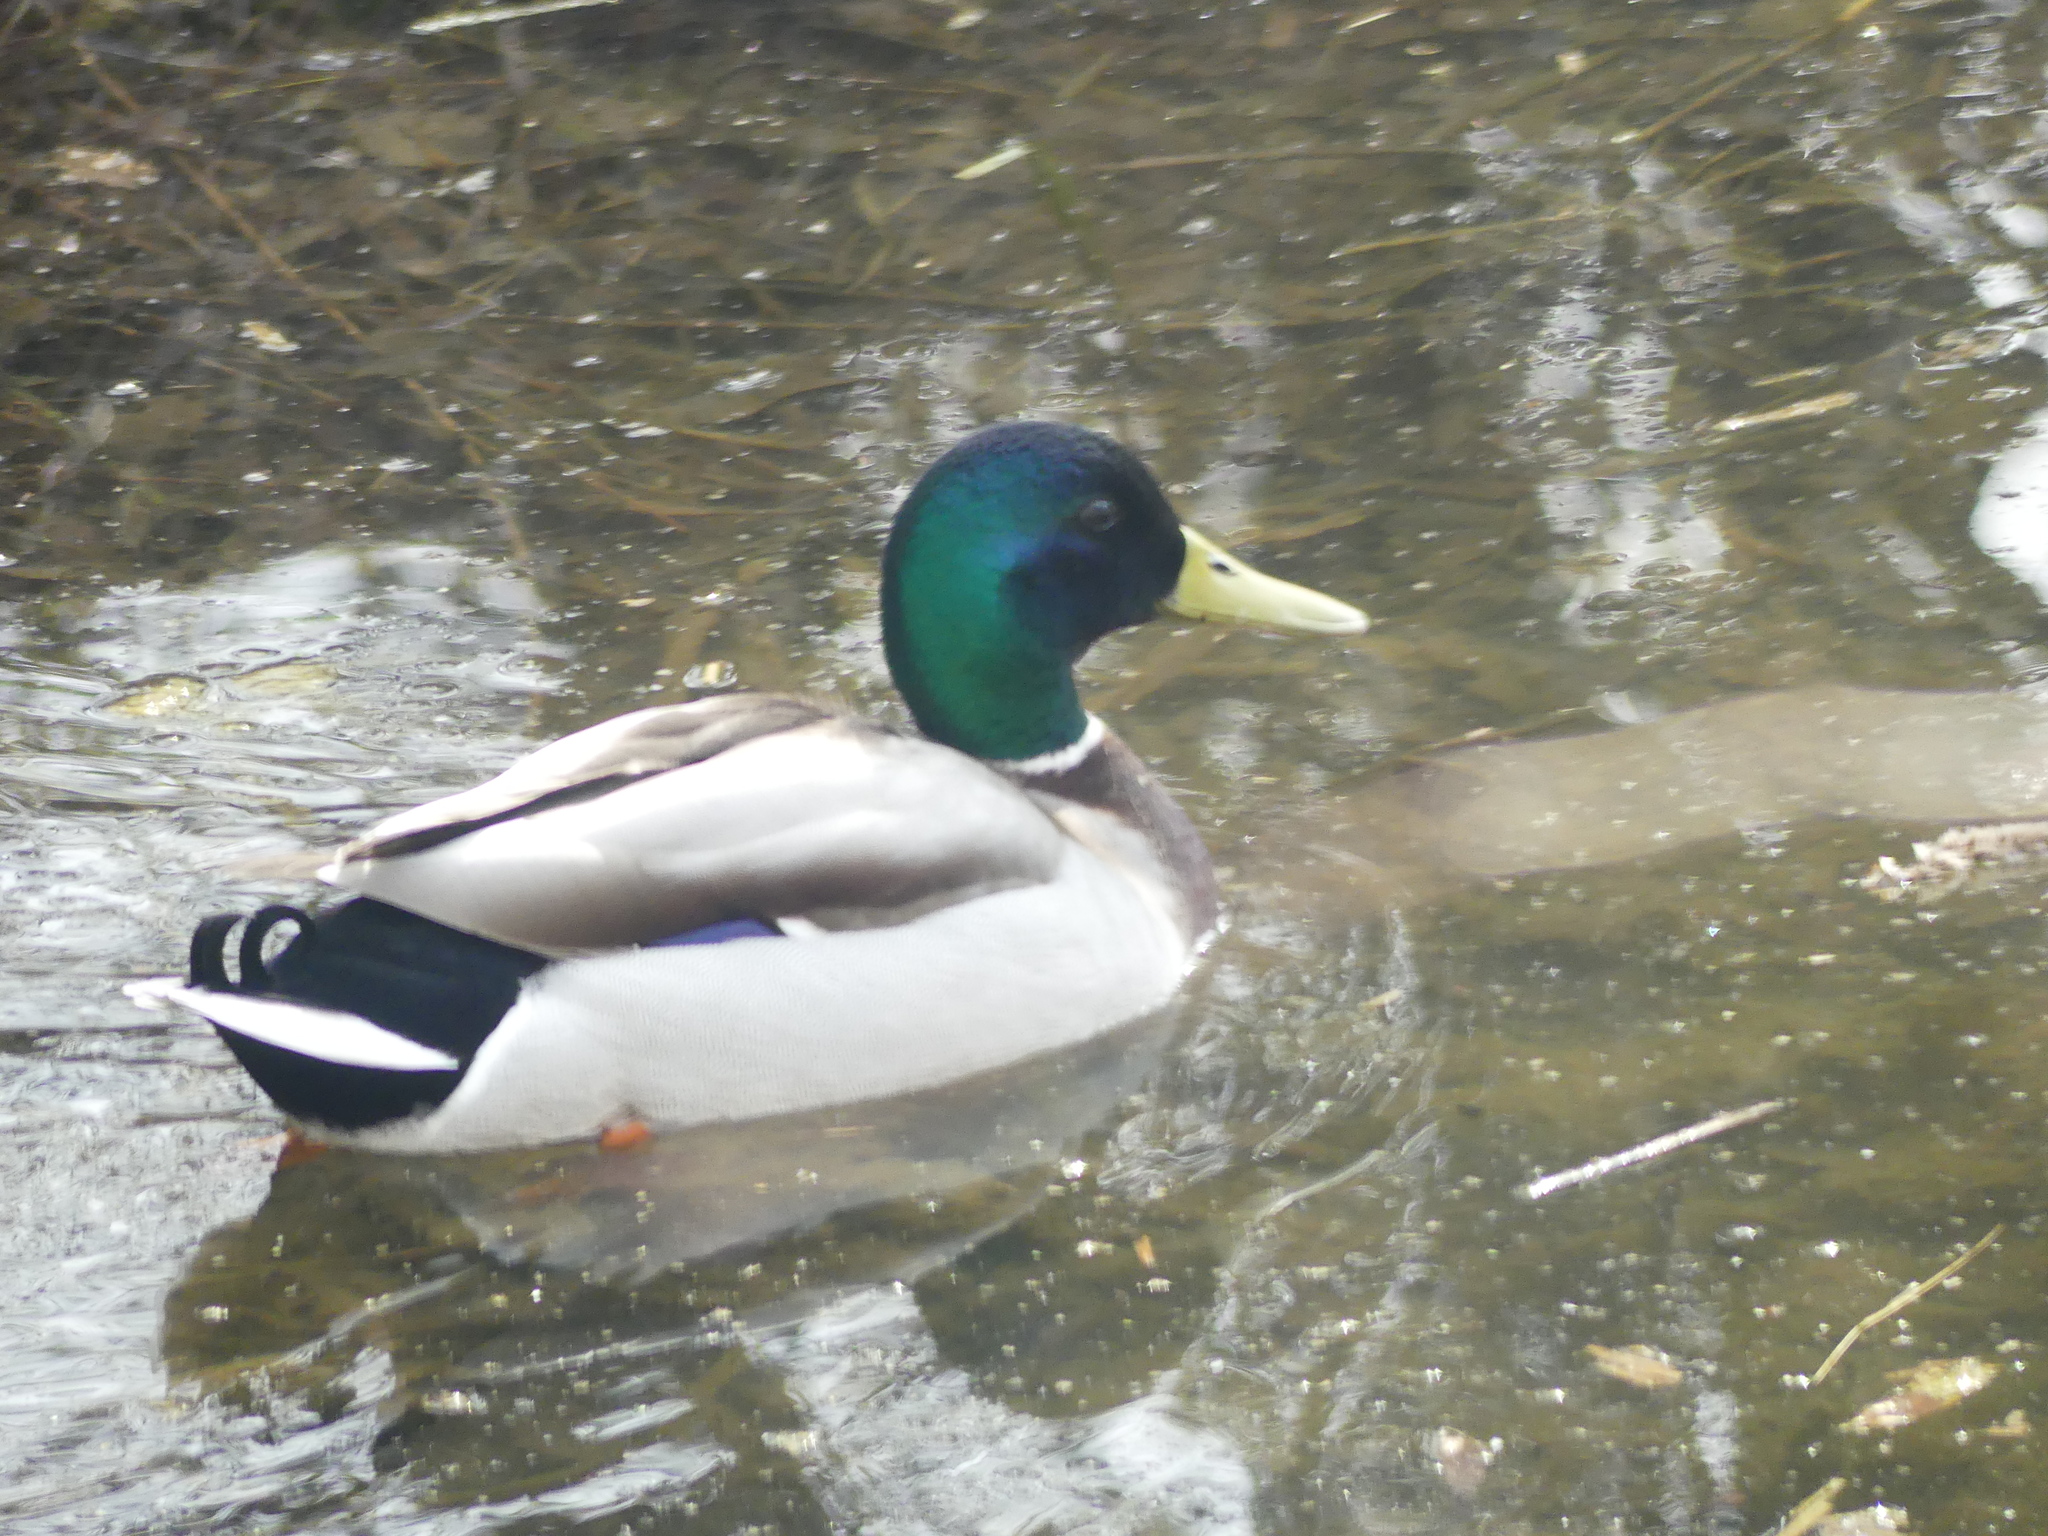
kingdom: Animalia
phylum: Chordata
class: Aves
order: Anseriformes
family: Anatidae
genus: Anas
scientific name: Anas platyrhynchos
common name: Mallard
